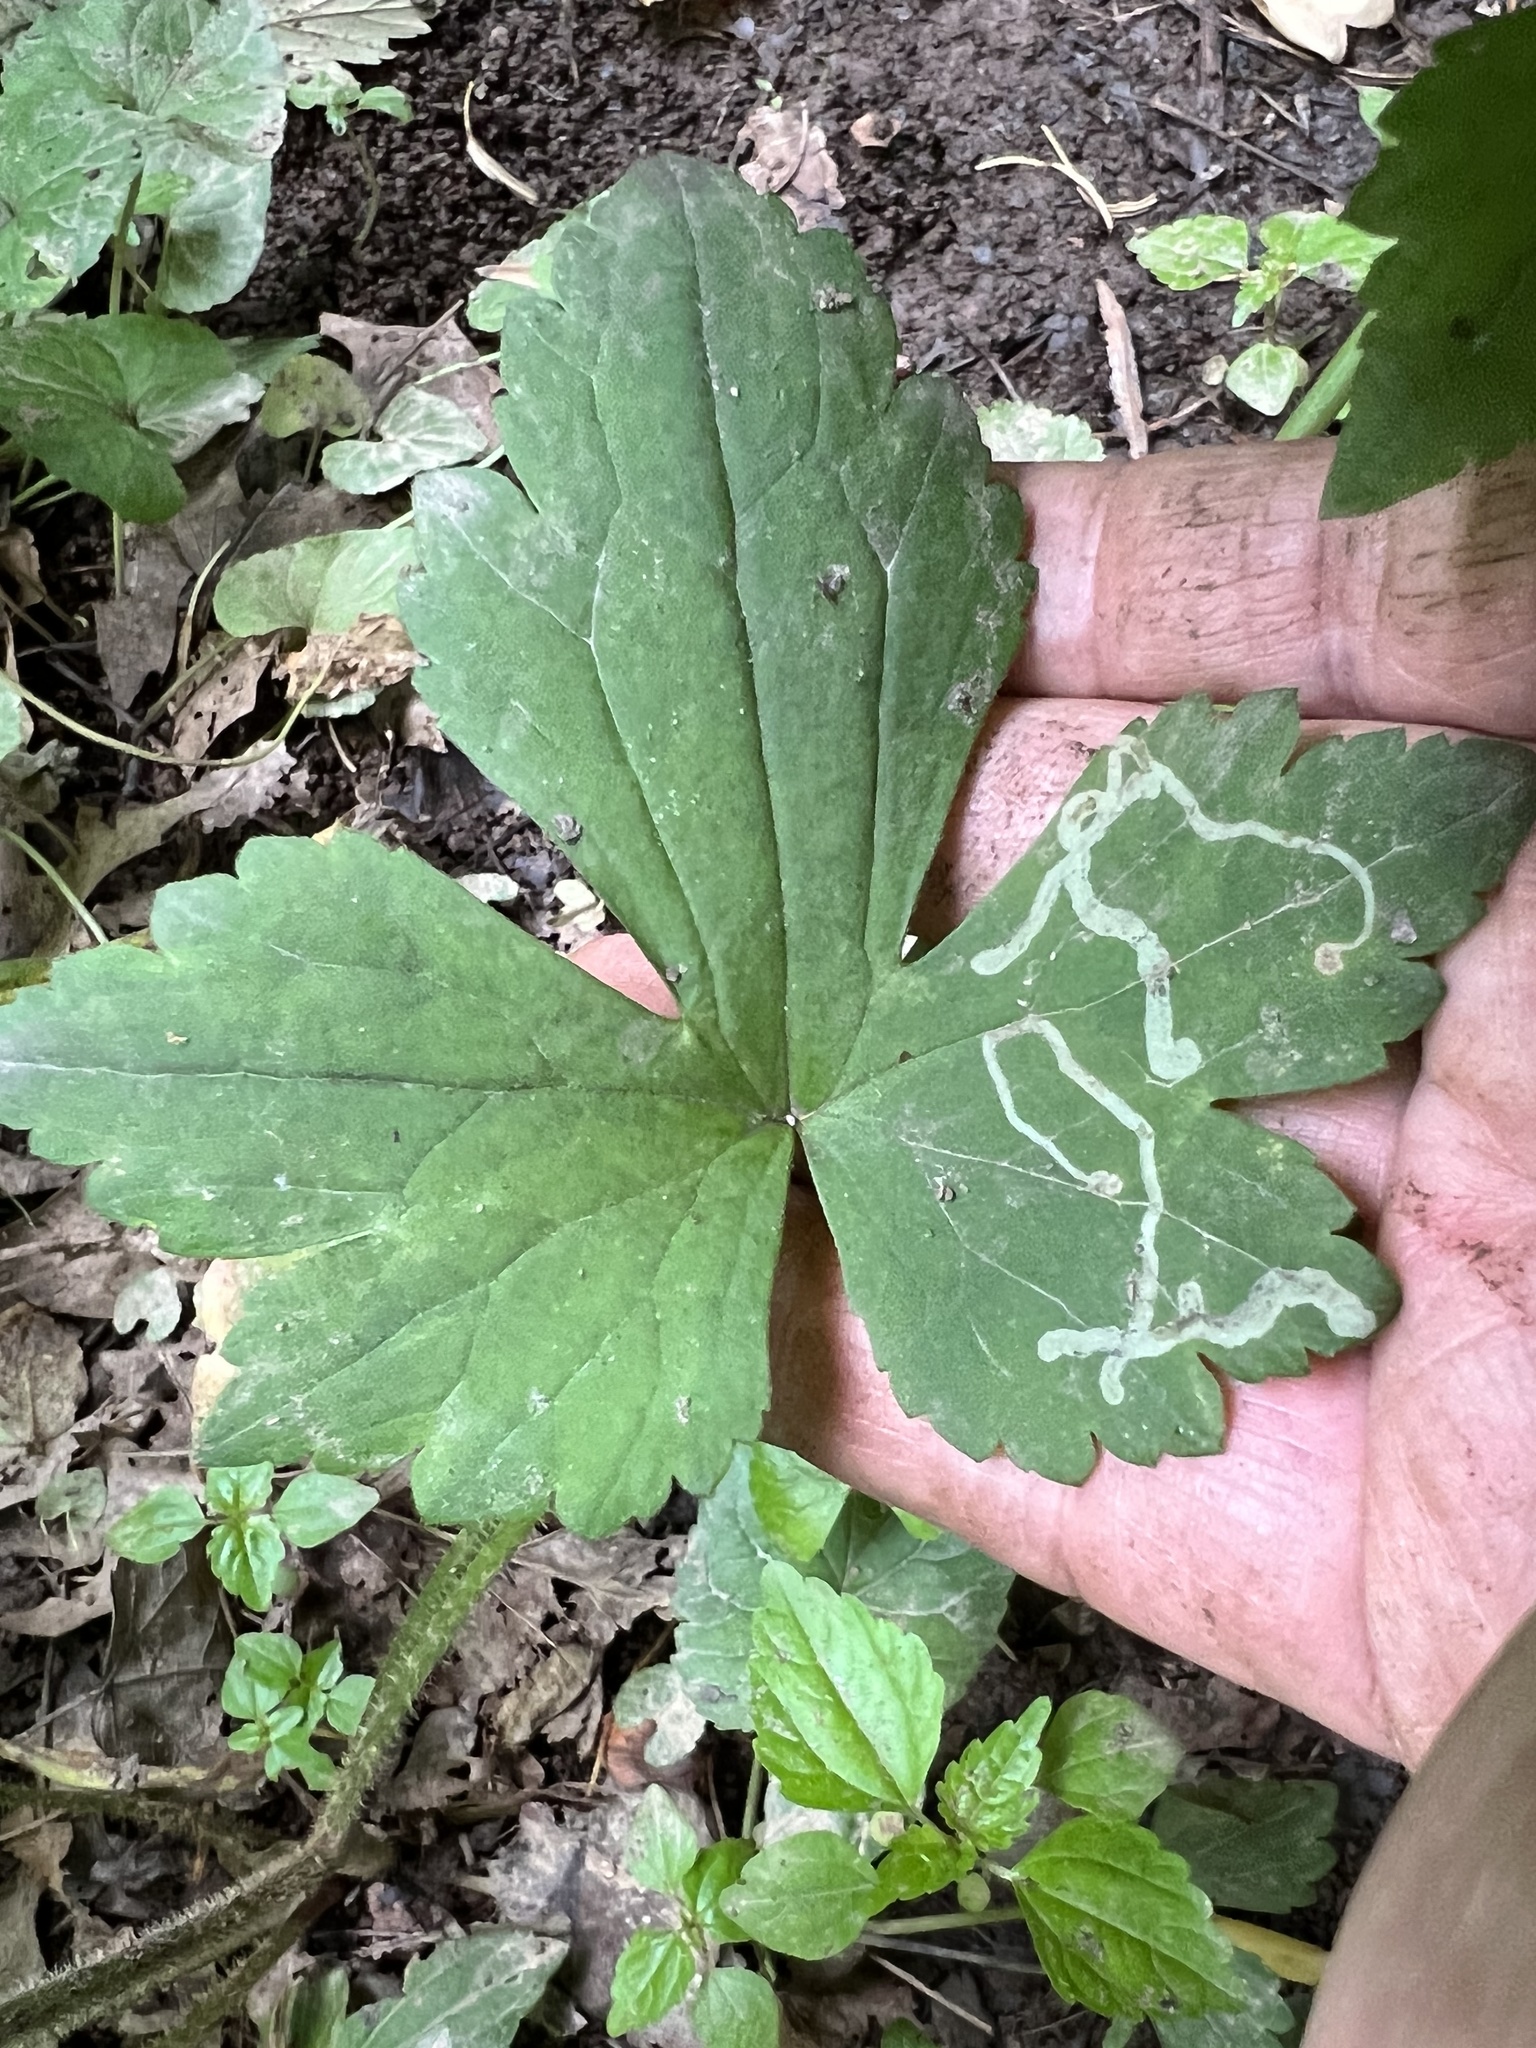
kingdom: Animalia
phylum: Arthropoda
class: Insecta
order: Diptera
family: Agromyzidae
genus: Phytomyza
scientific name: Phytomyza loewii
